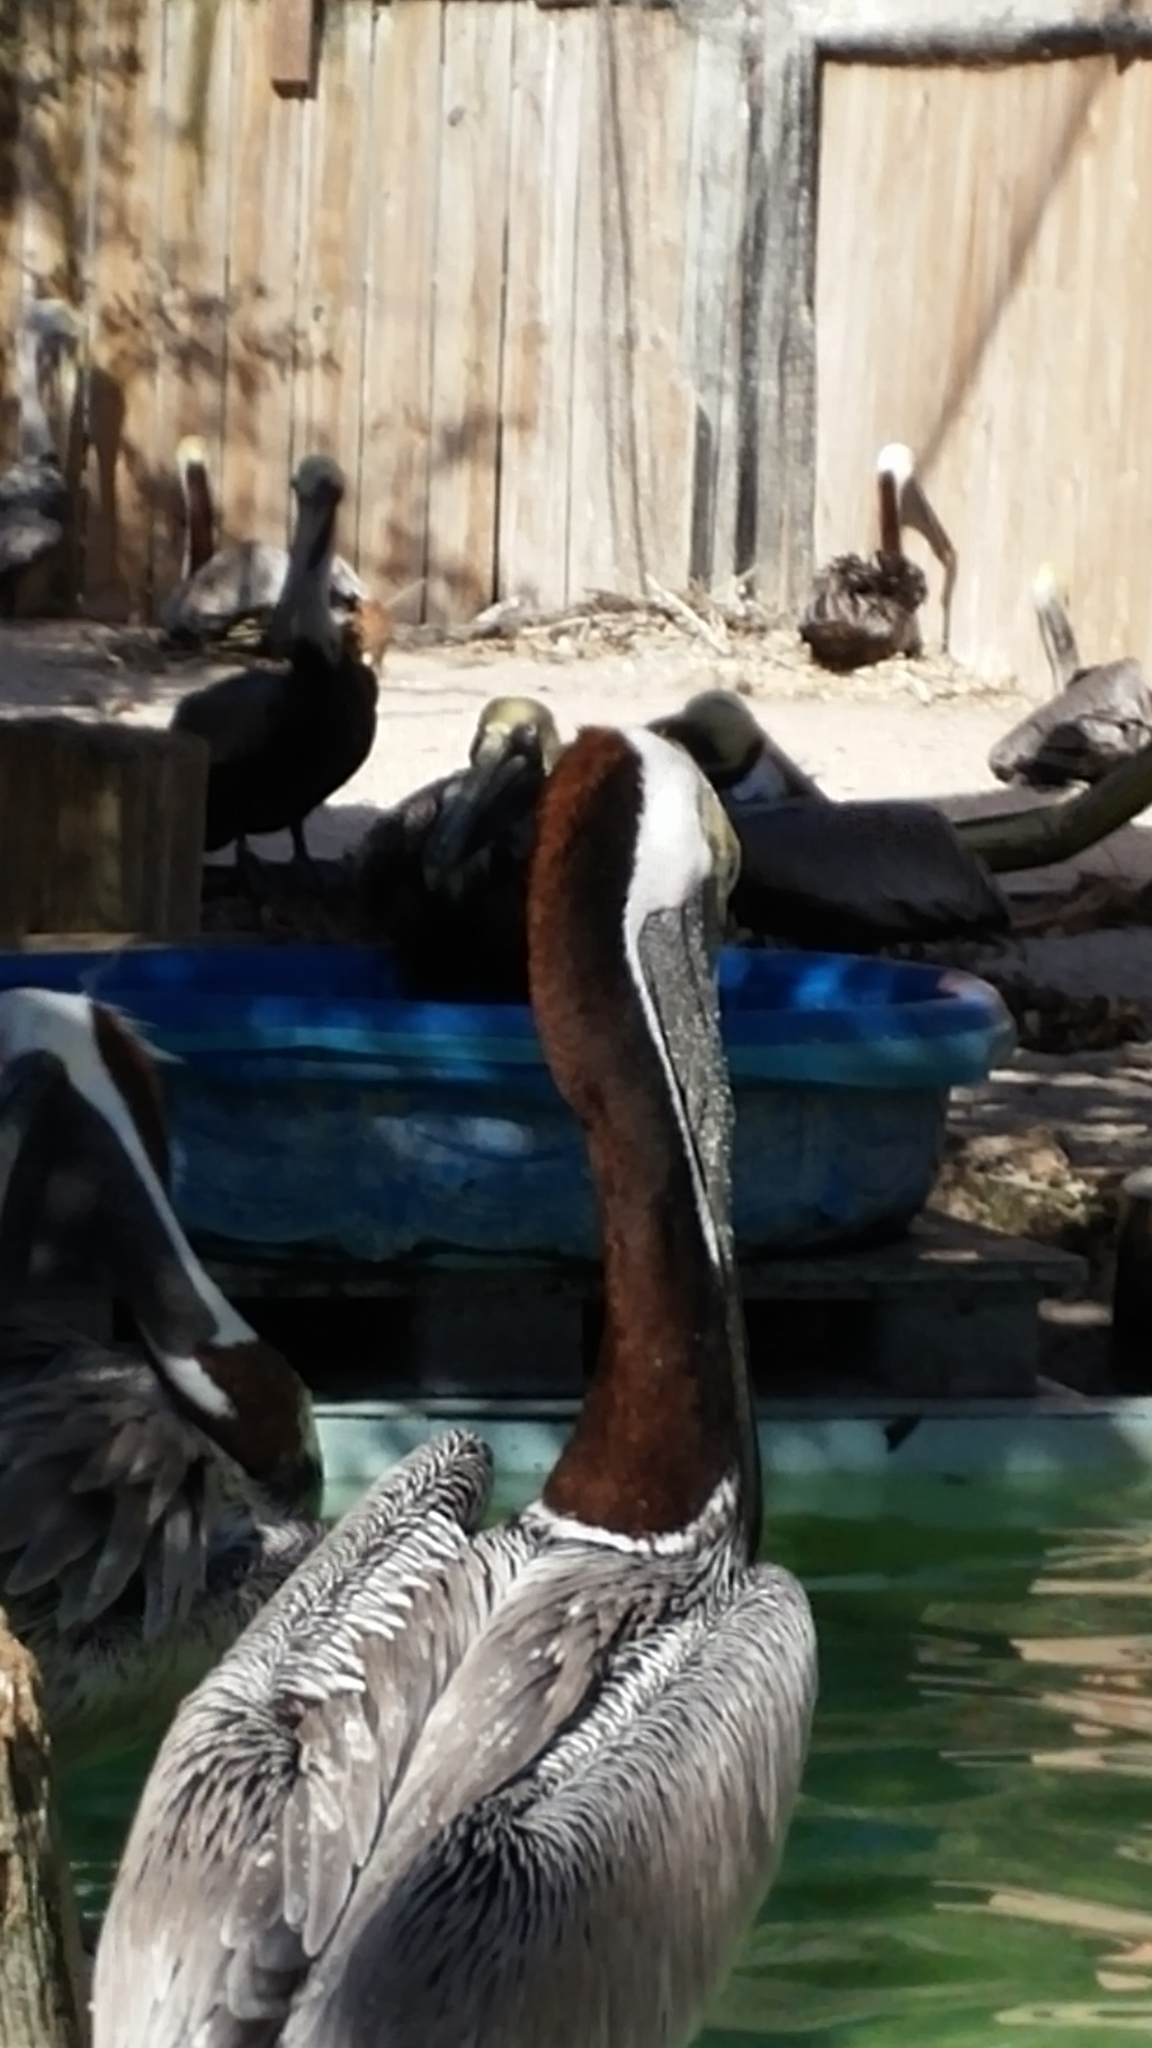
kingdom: Animalia
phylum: Chordata
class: Aves
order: Pelecaniformes
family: Pelecanidae
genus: Pelecanus
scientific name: Pelecanus occidentalis
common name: Brown pelican
